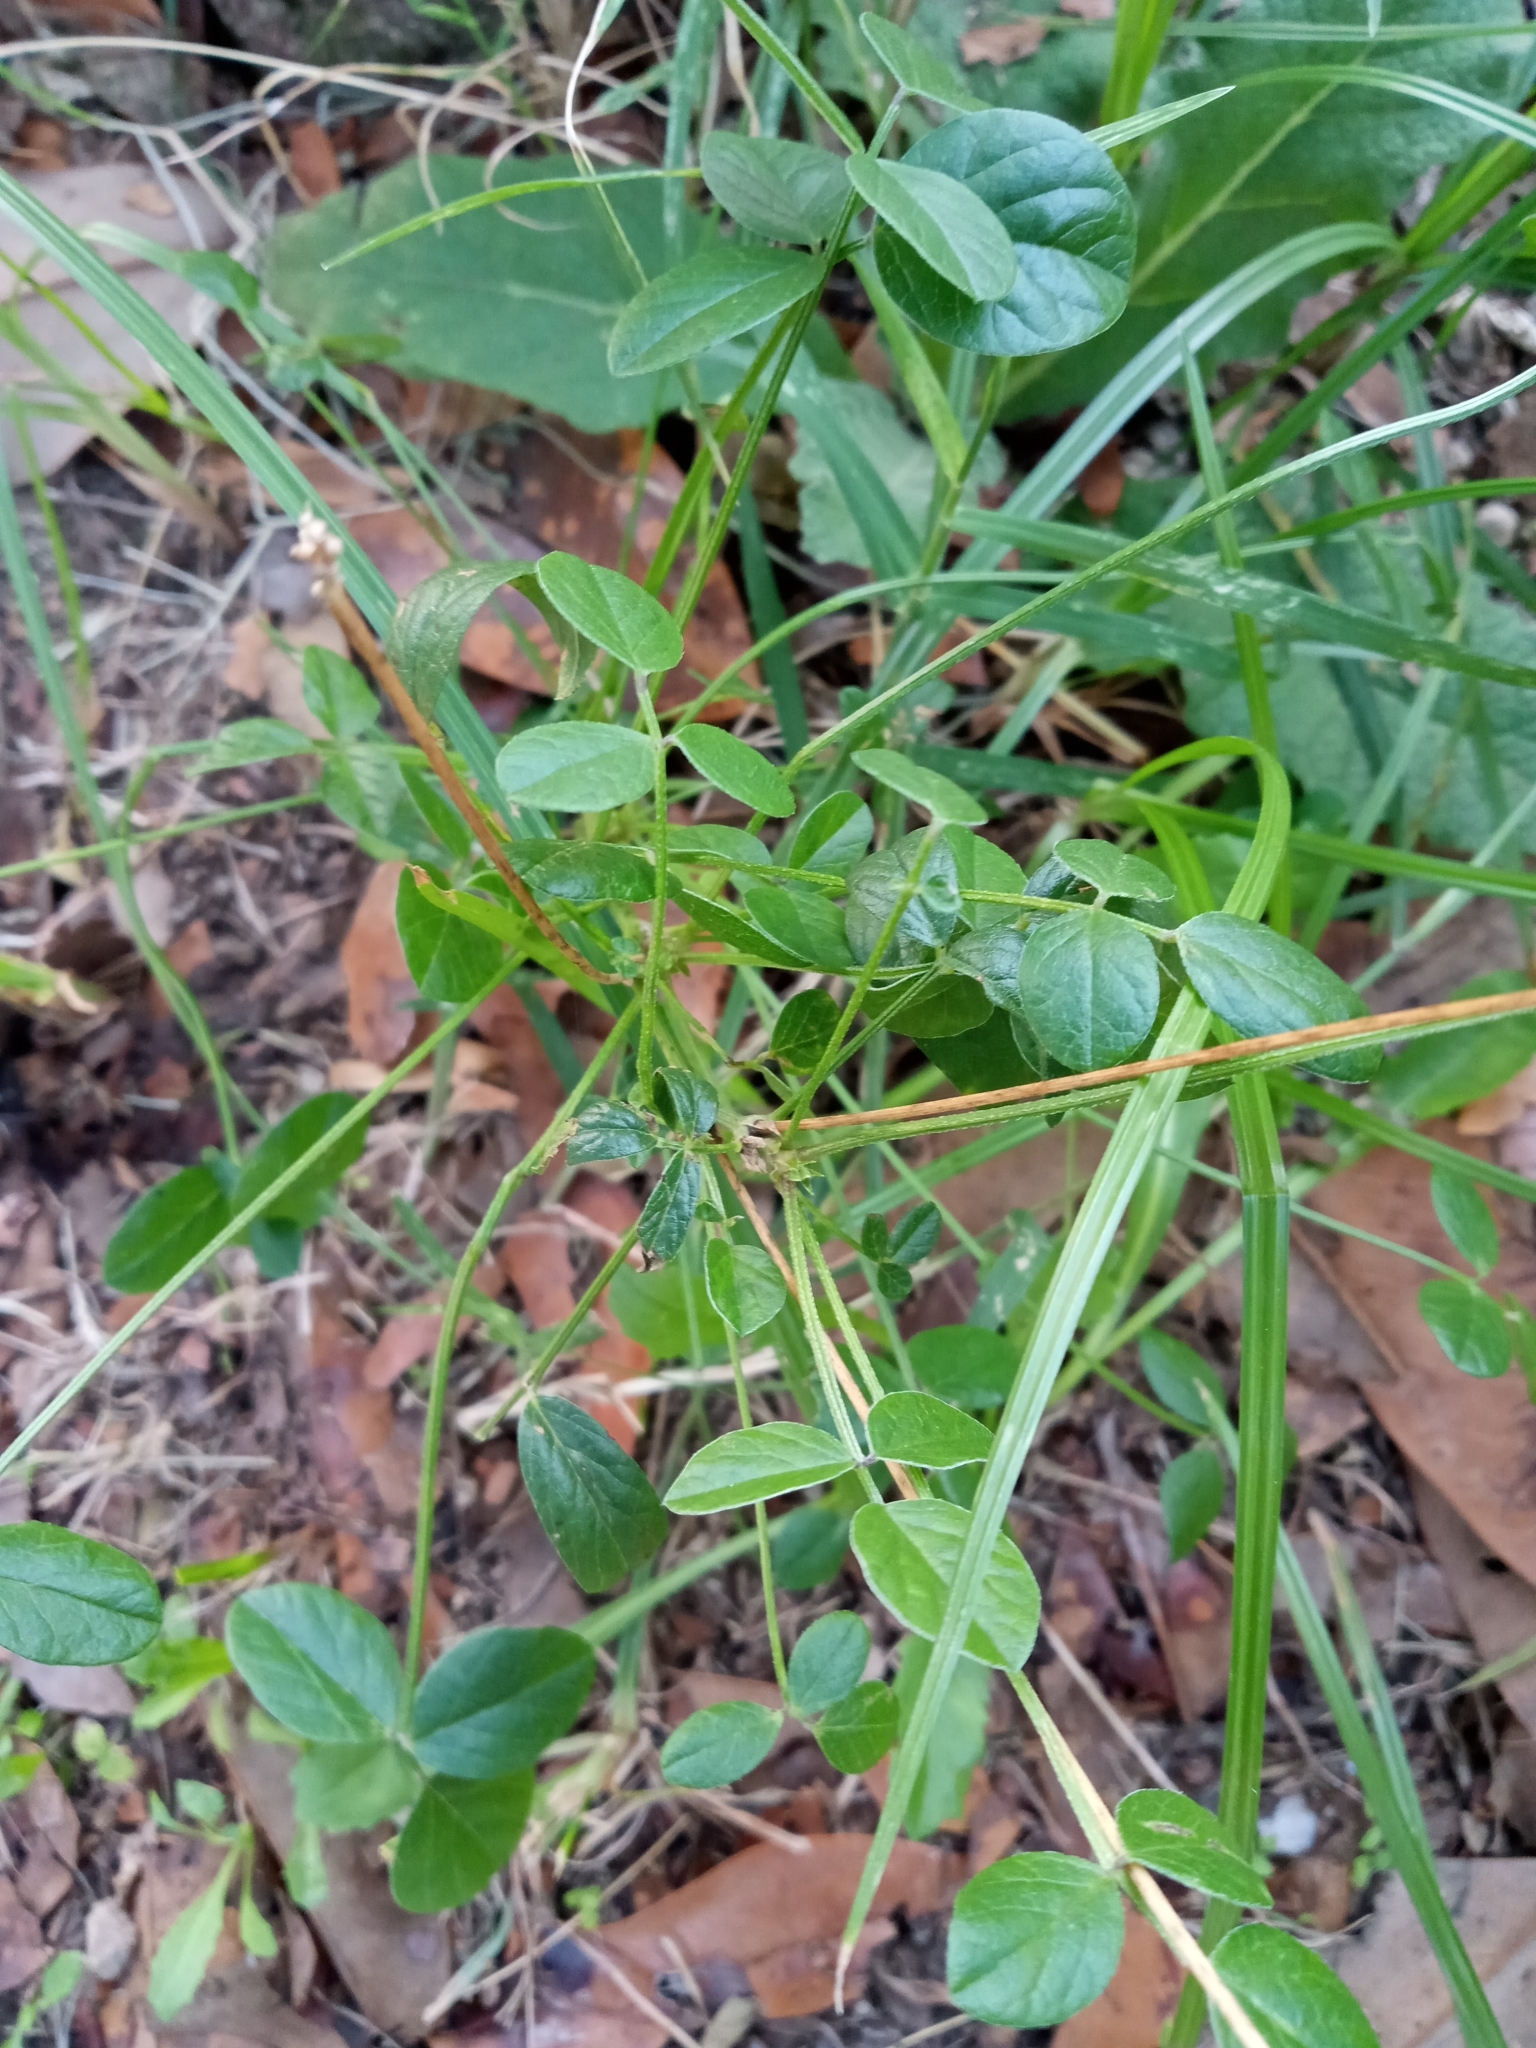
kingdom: Plantae
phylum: Tracheophyta
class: Magnoliopsida
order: Fabales
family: Fabaceae
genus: Bituminaria
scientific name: Bituminaria bituminosa
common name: Arabian pea
